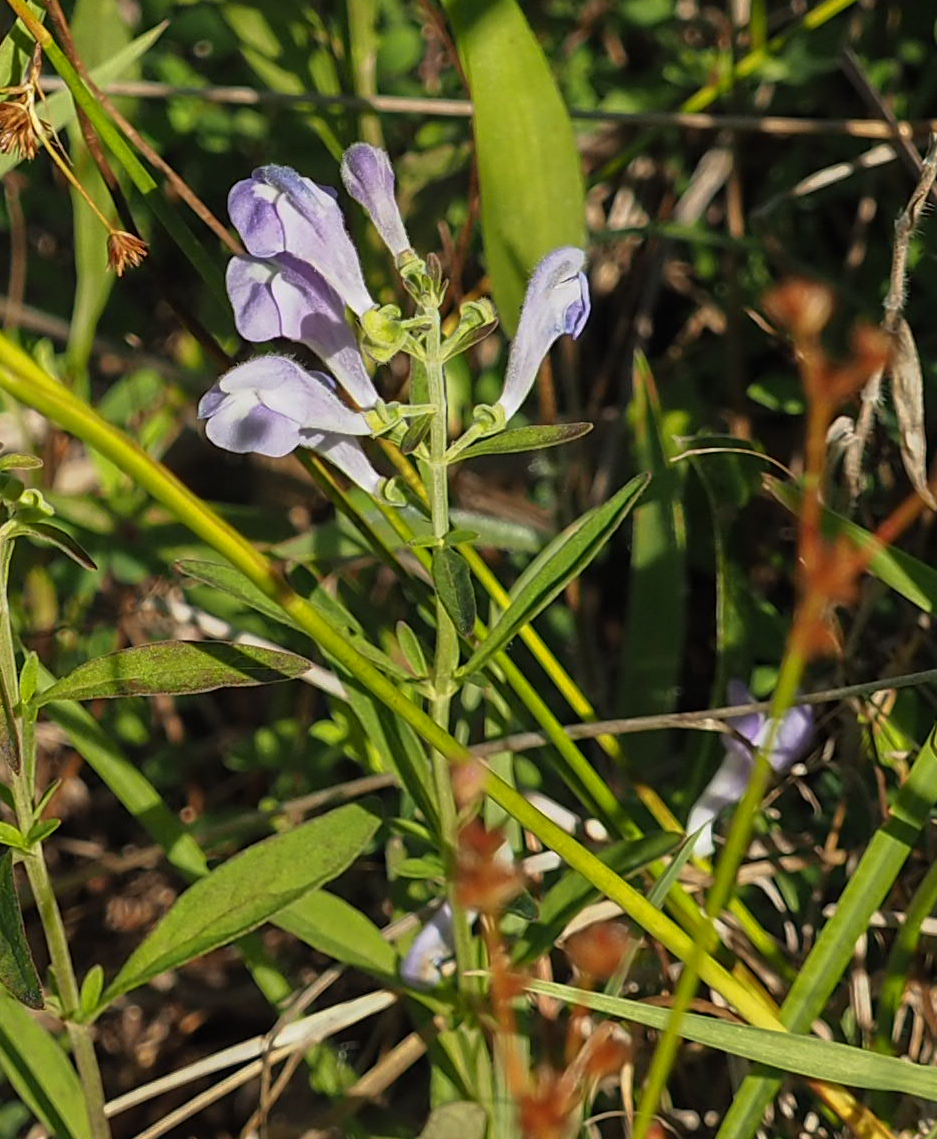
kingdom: Plantae
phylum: Tracheophyta
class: Magnoliopsida
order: Lamiales
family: Lamiaceae
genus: Scutellaria
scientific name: Scutellaria integrifolia
